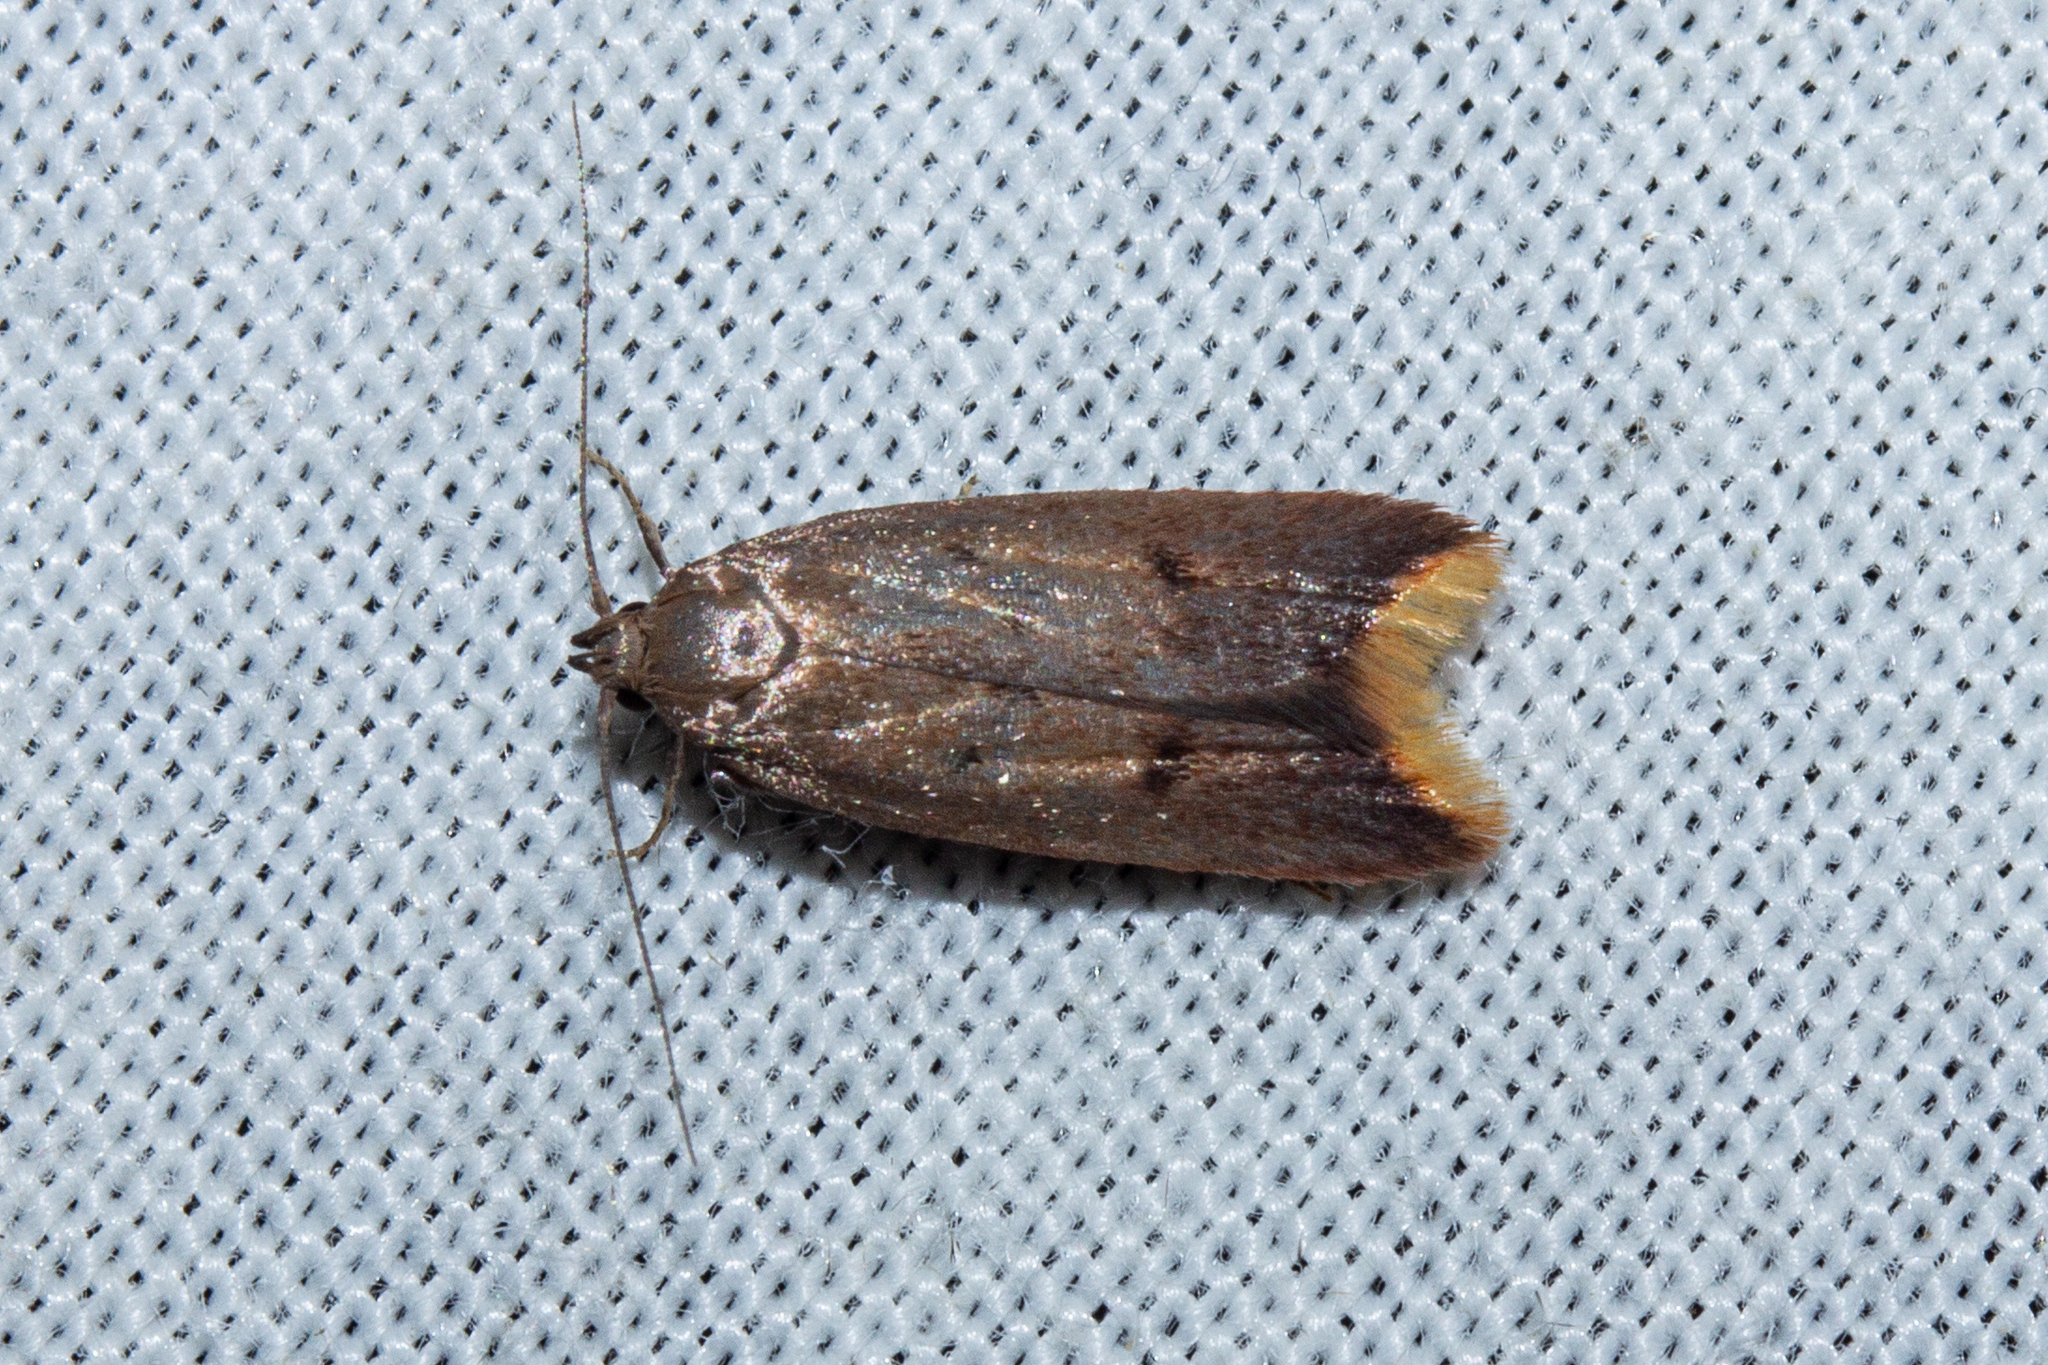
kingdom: Animalia
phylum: Arthropoda
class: Insecta
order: Lepidoptera
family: Oecophoridae
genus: Tachystola
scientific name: Tachystola acroxantha
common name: Ruddy streak
